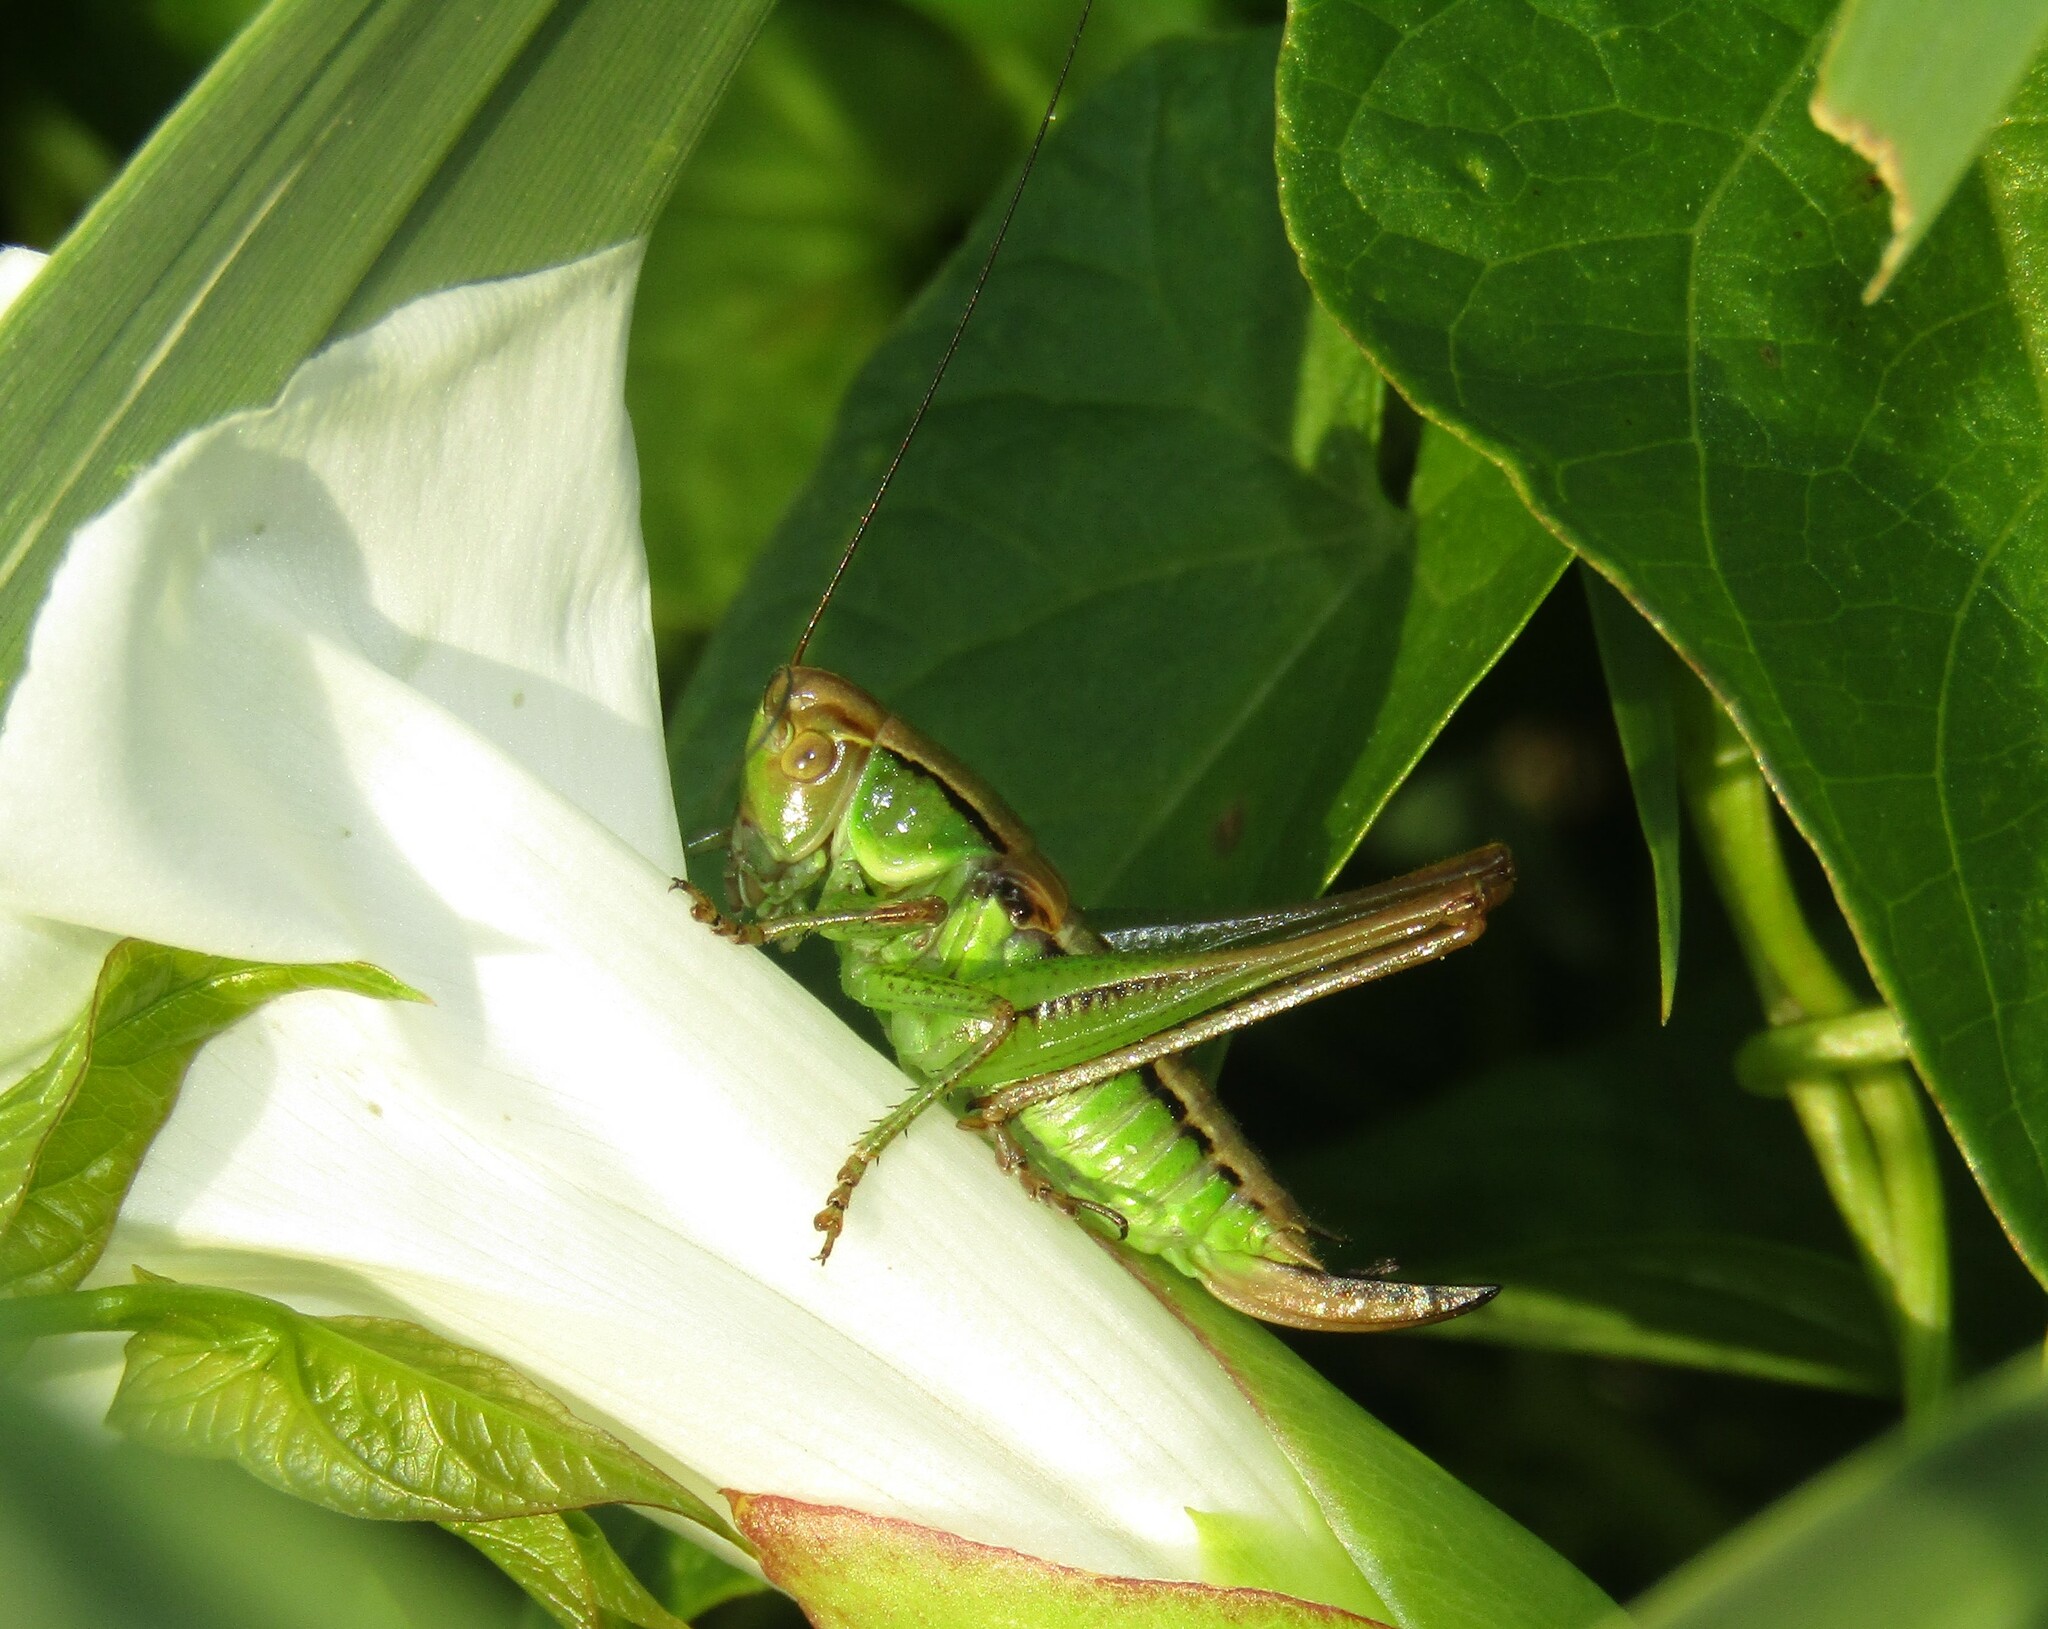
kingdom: Animalia
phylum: Arthropoda
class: Insecta
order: Orthoptera
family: Tettigoniidae
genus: Roeseliana
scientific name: Roeseliana roeselii
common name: Roesel's bush cricket
